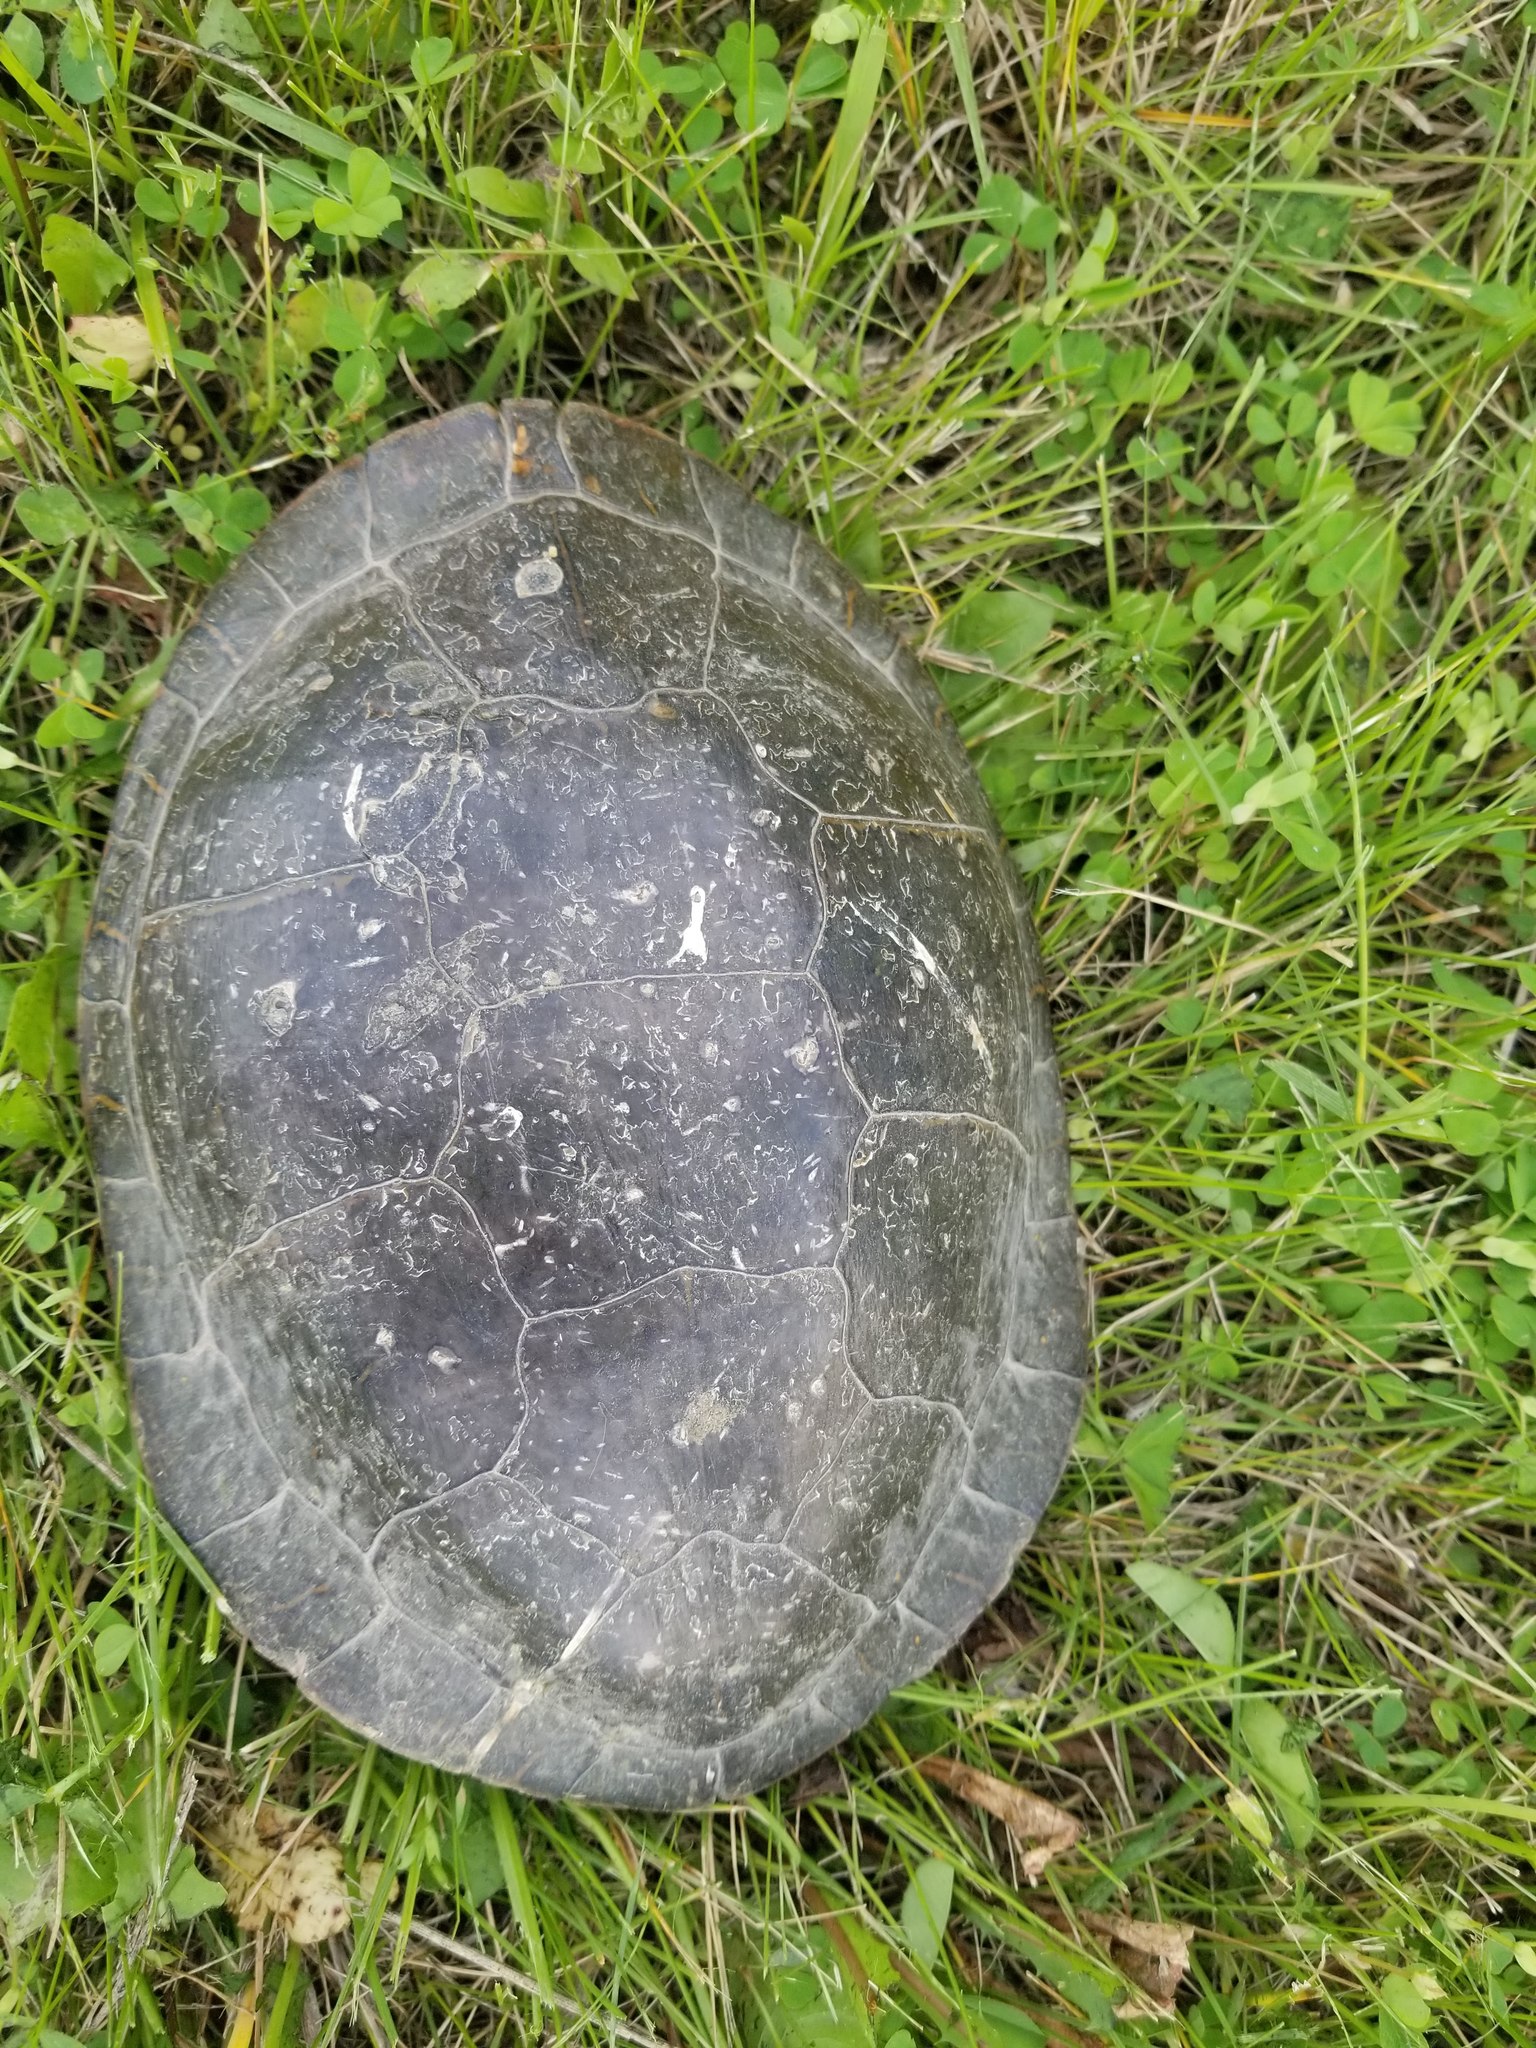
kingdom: Animalia
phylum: Chordata
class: Testudines
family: Emydidae
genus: Chrysemys
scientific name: Chrysemys picta
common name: Painted turtle
